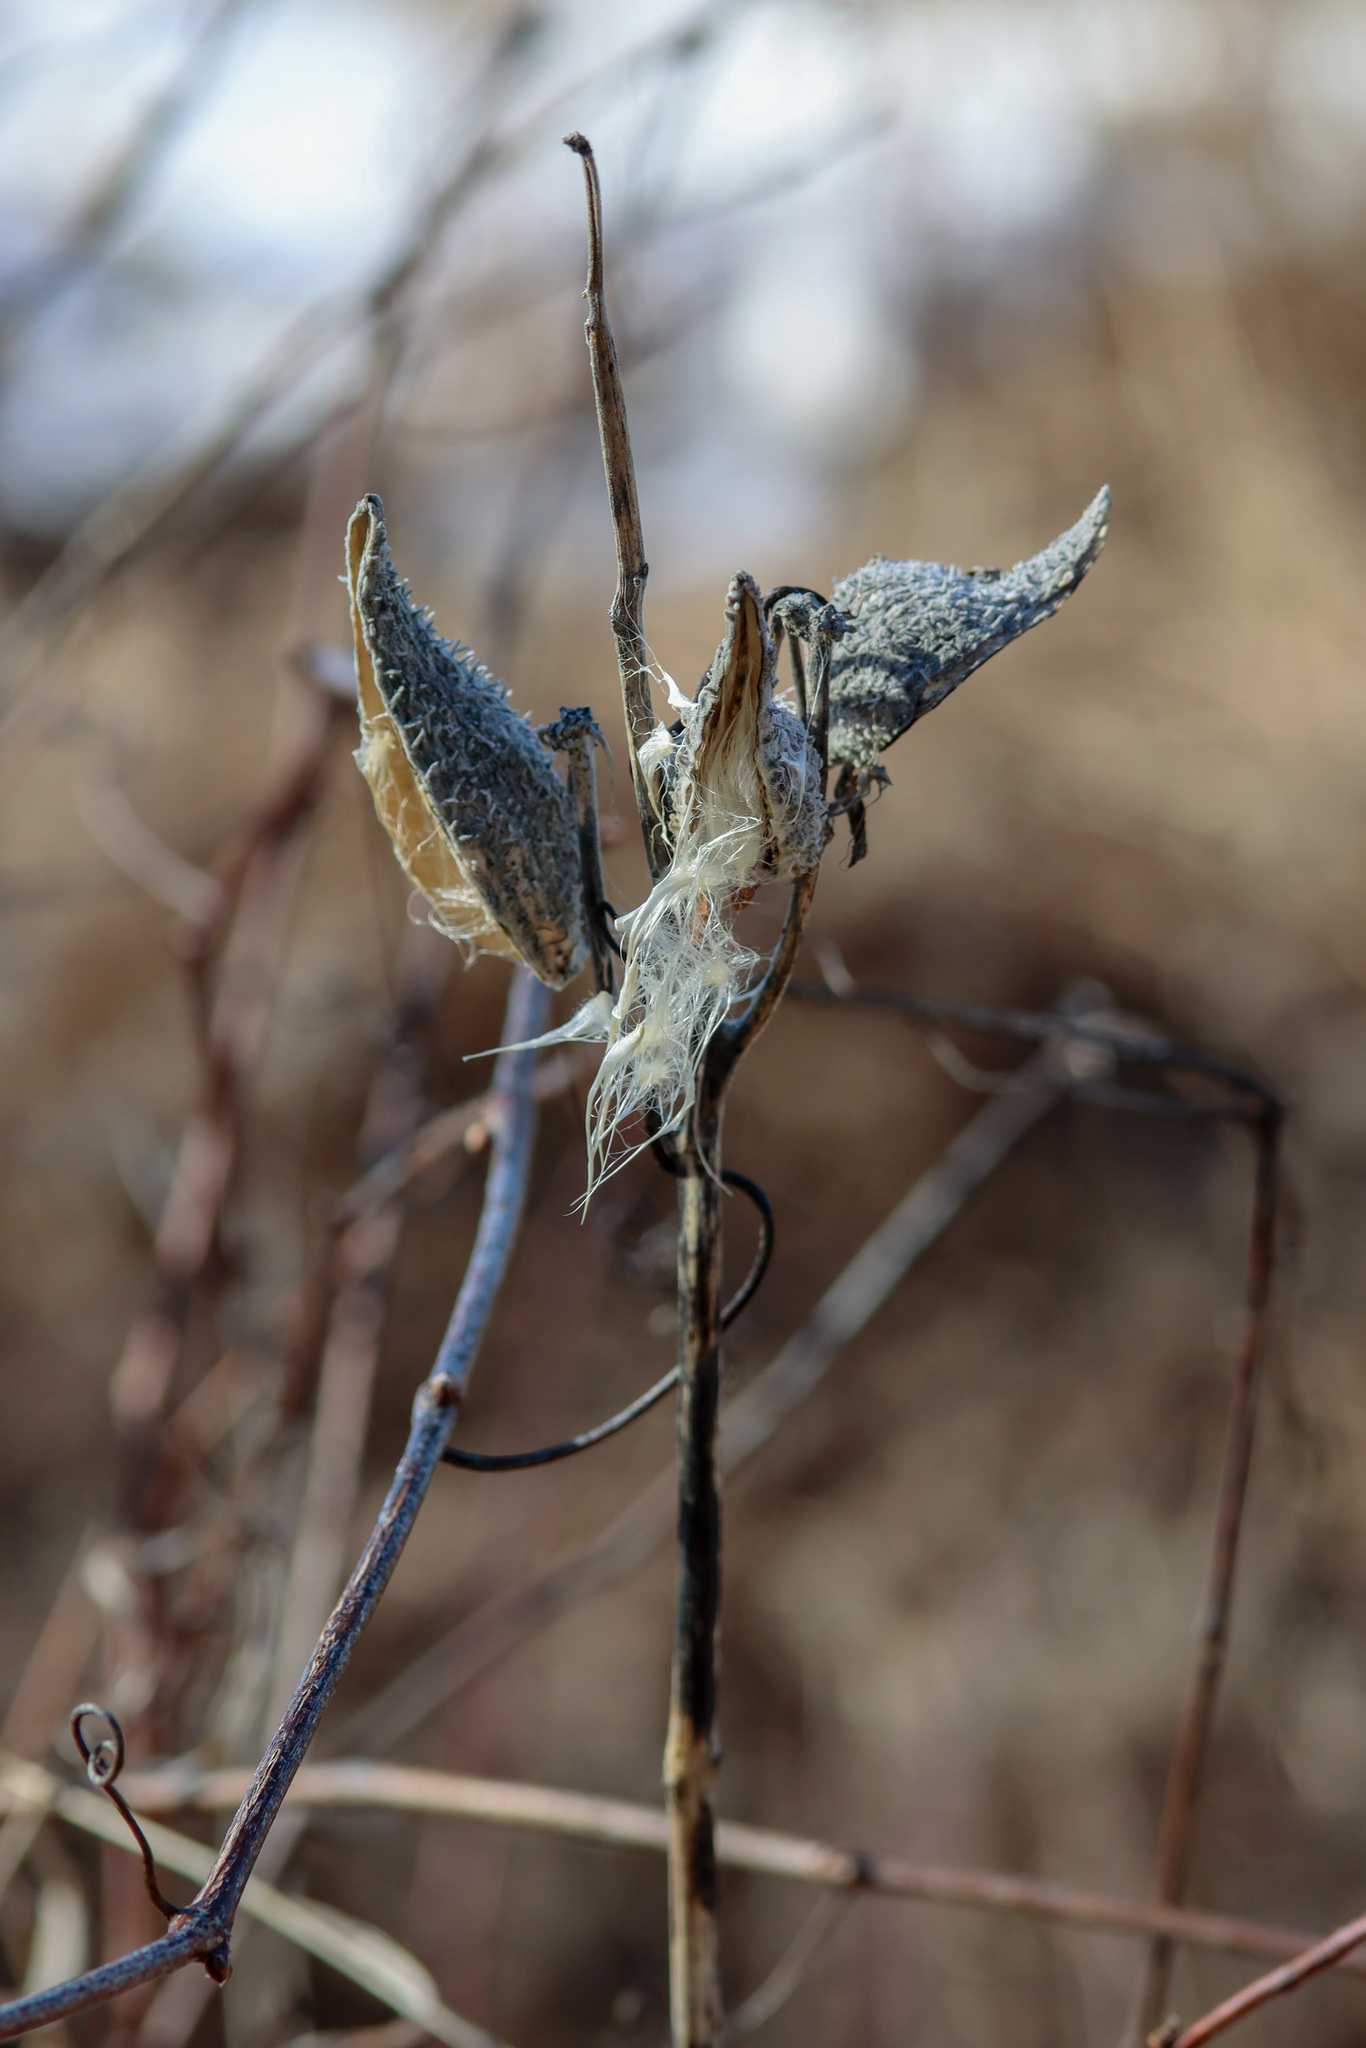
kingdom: Plantae
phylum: Tracheophyta
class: Magnoliopsida
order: Gentianales
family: Apocynaceae
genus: Asclepias
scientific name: Asclepias syriaca
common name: Common milkweed
